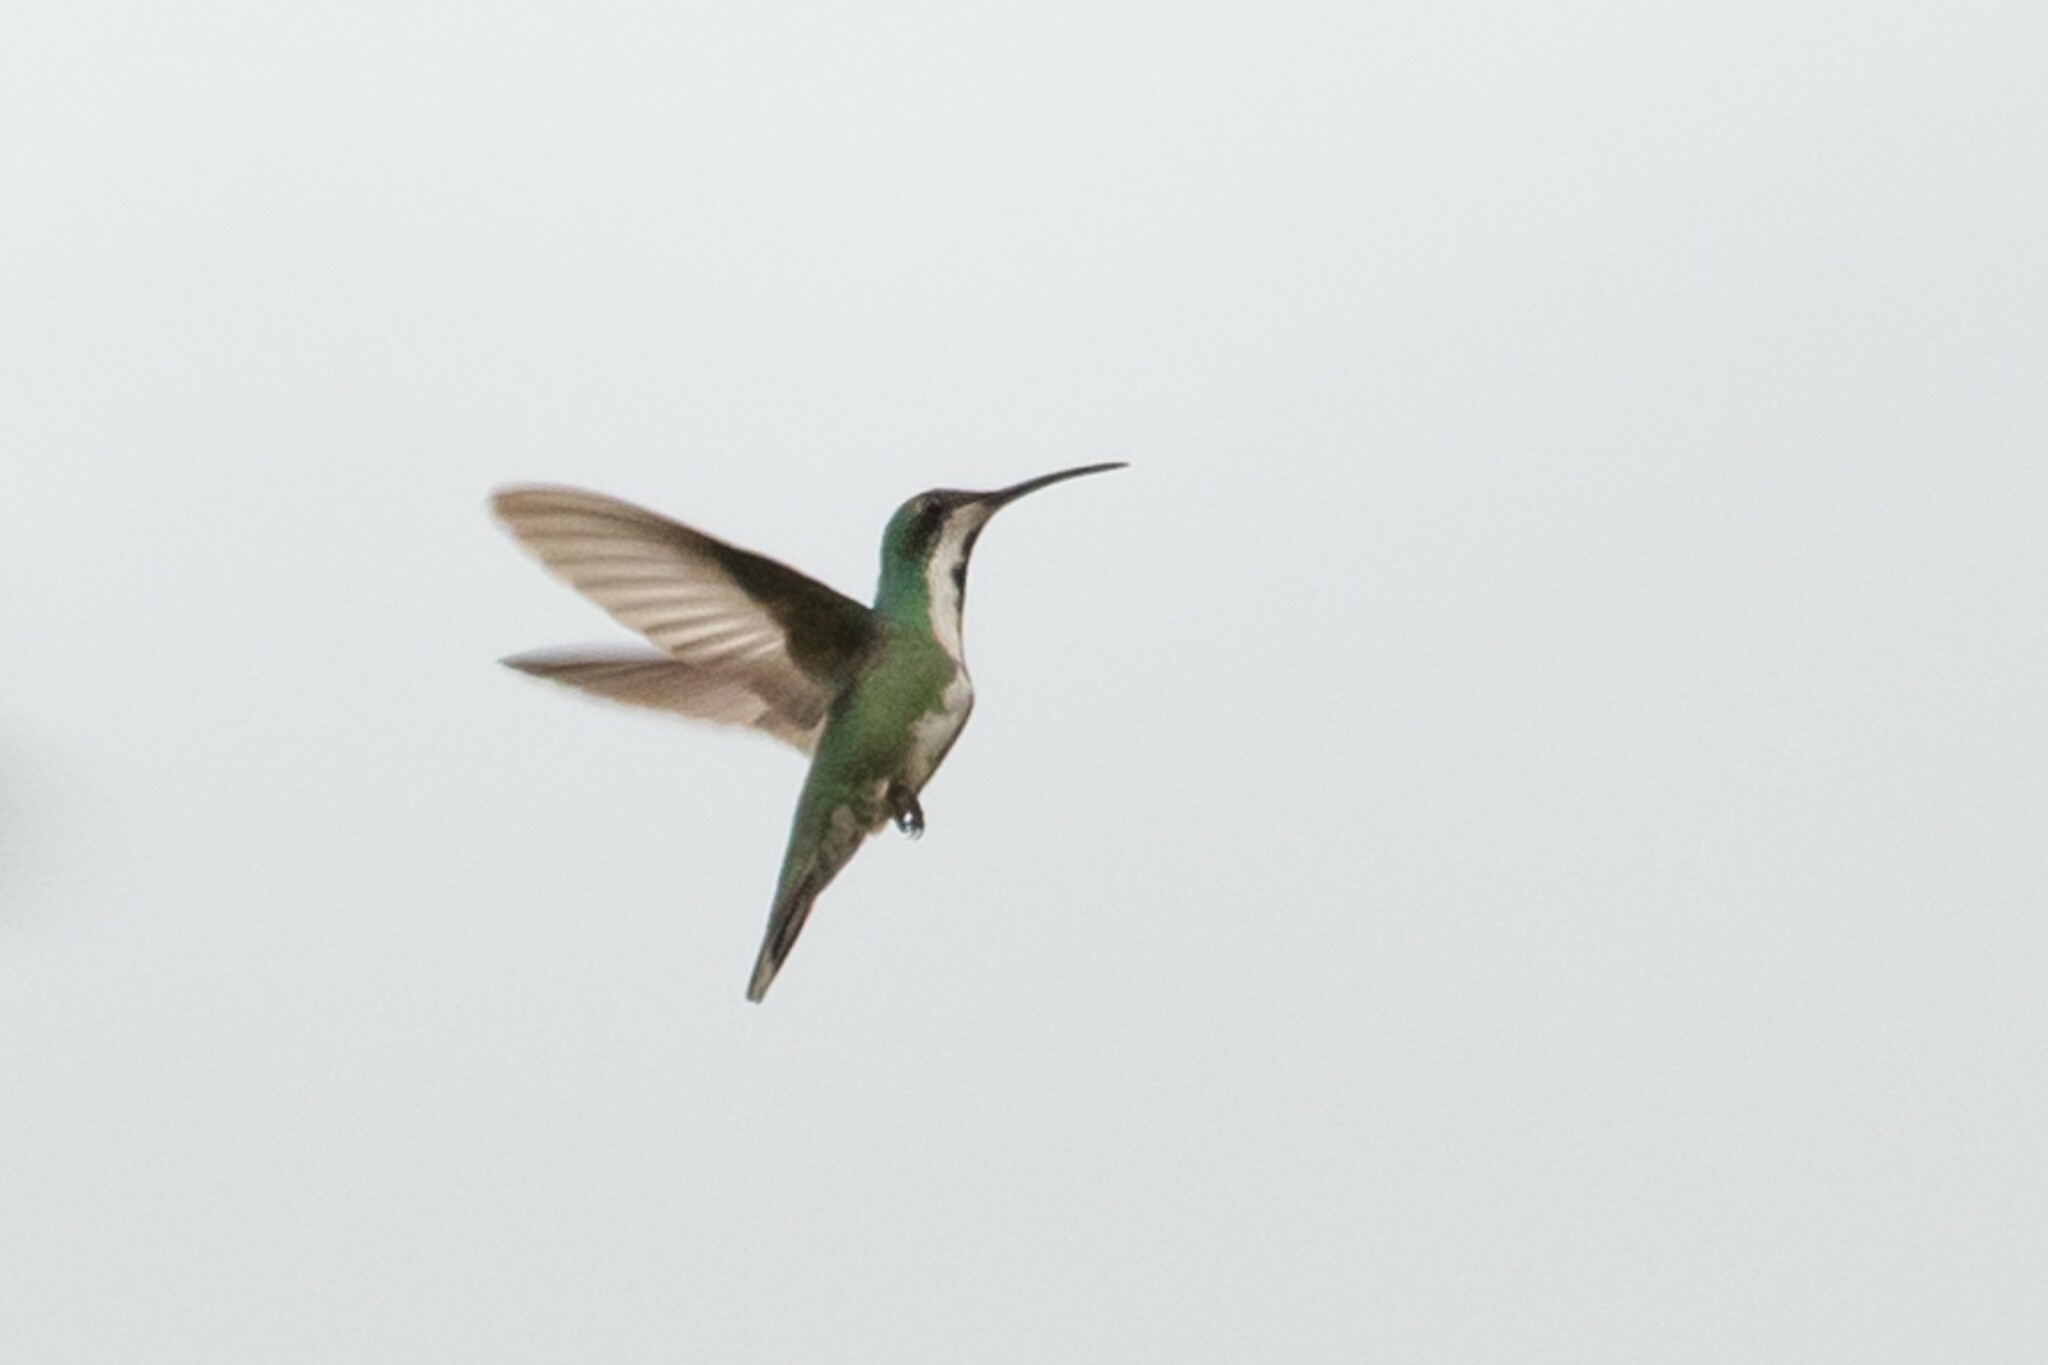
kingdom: Animalia
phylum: Chordata
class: Aves
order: Apodiformes
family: Trochilidae
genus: Anthracothorax
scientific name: Anthracothorax prevostii
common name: Green-breasted mango
